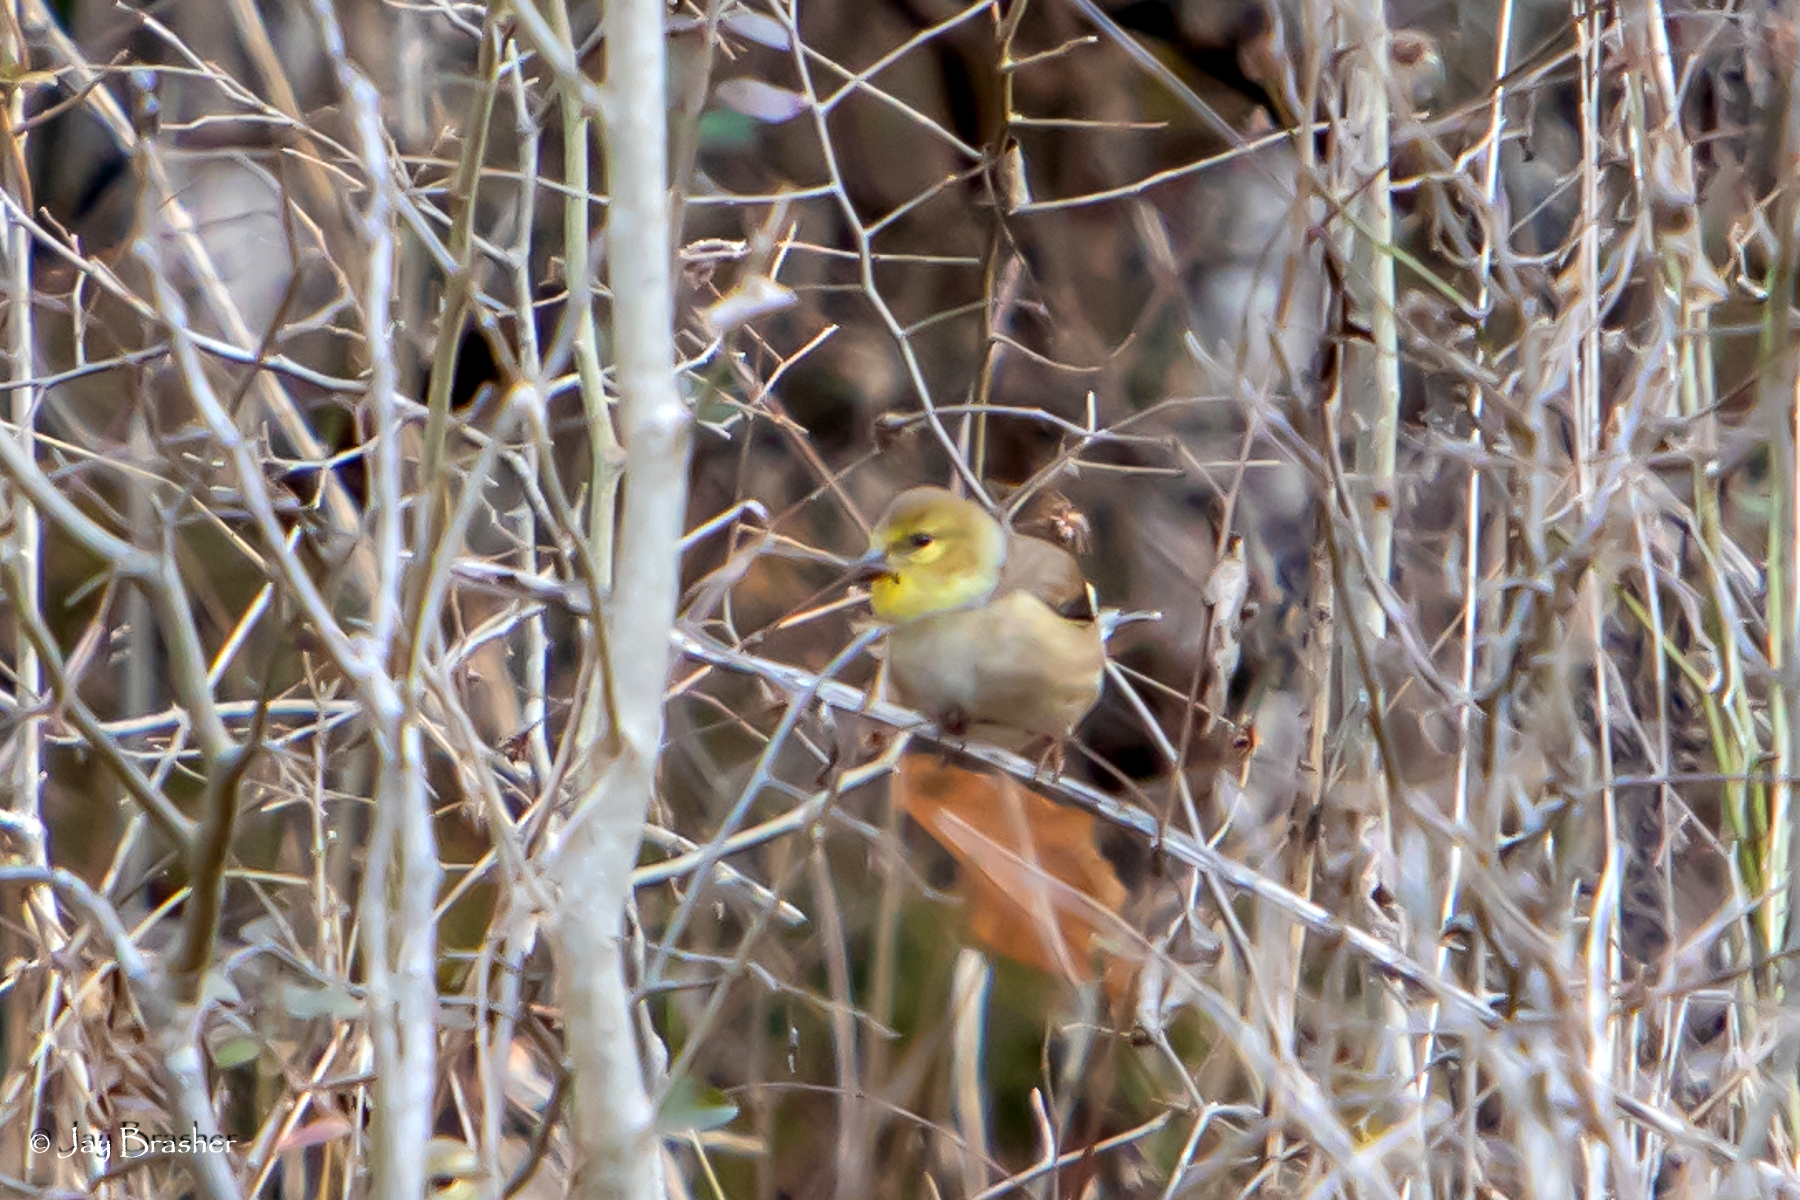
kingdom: Animalia
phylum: Chordata
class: Aves
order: Passeriformes
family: Fringillidae
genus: Spinus
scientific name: Spinus tristis
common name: American goldfinch
